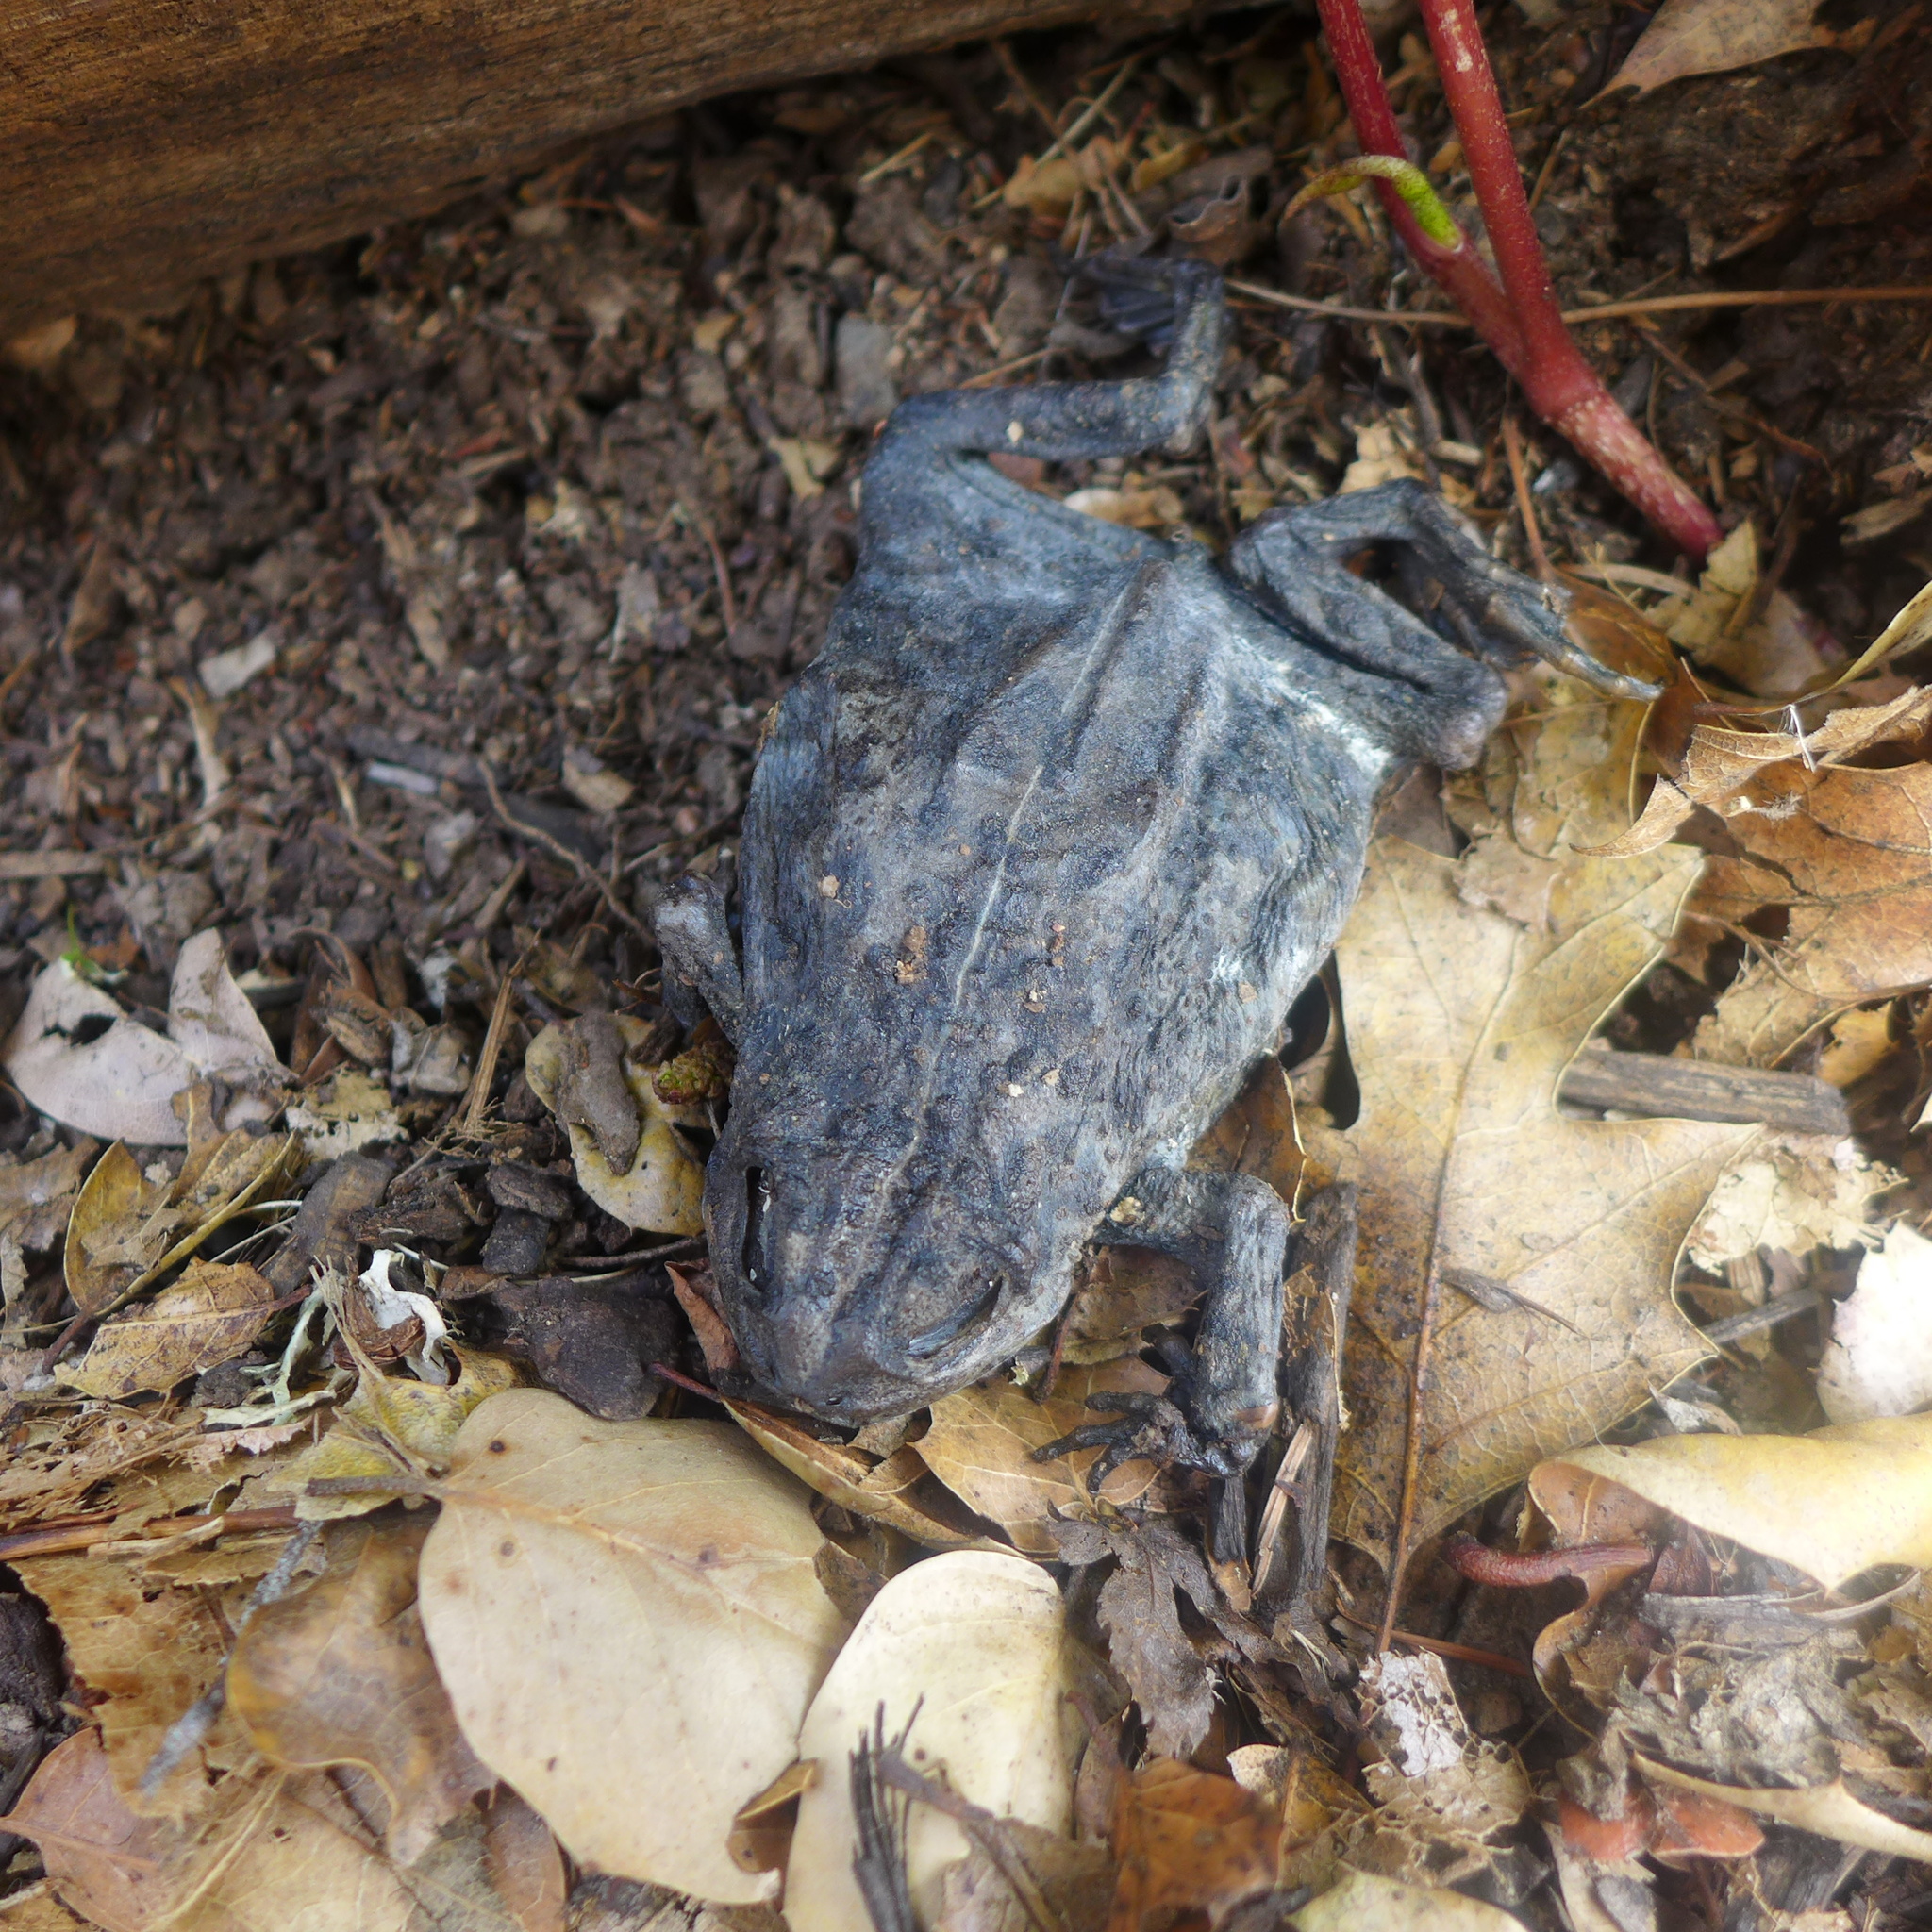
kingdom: Animalia
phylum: Chordata
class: Amphibia
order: Anura
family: Bufonidae
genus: Anaxyrus
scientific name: Anaxyrus boreas
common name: Western toad
